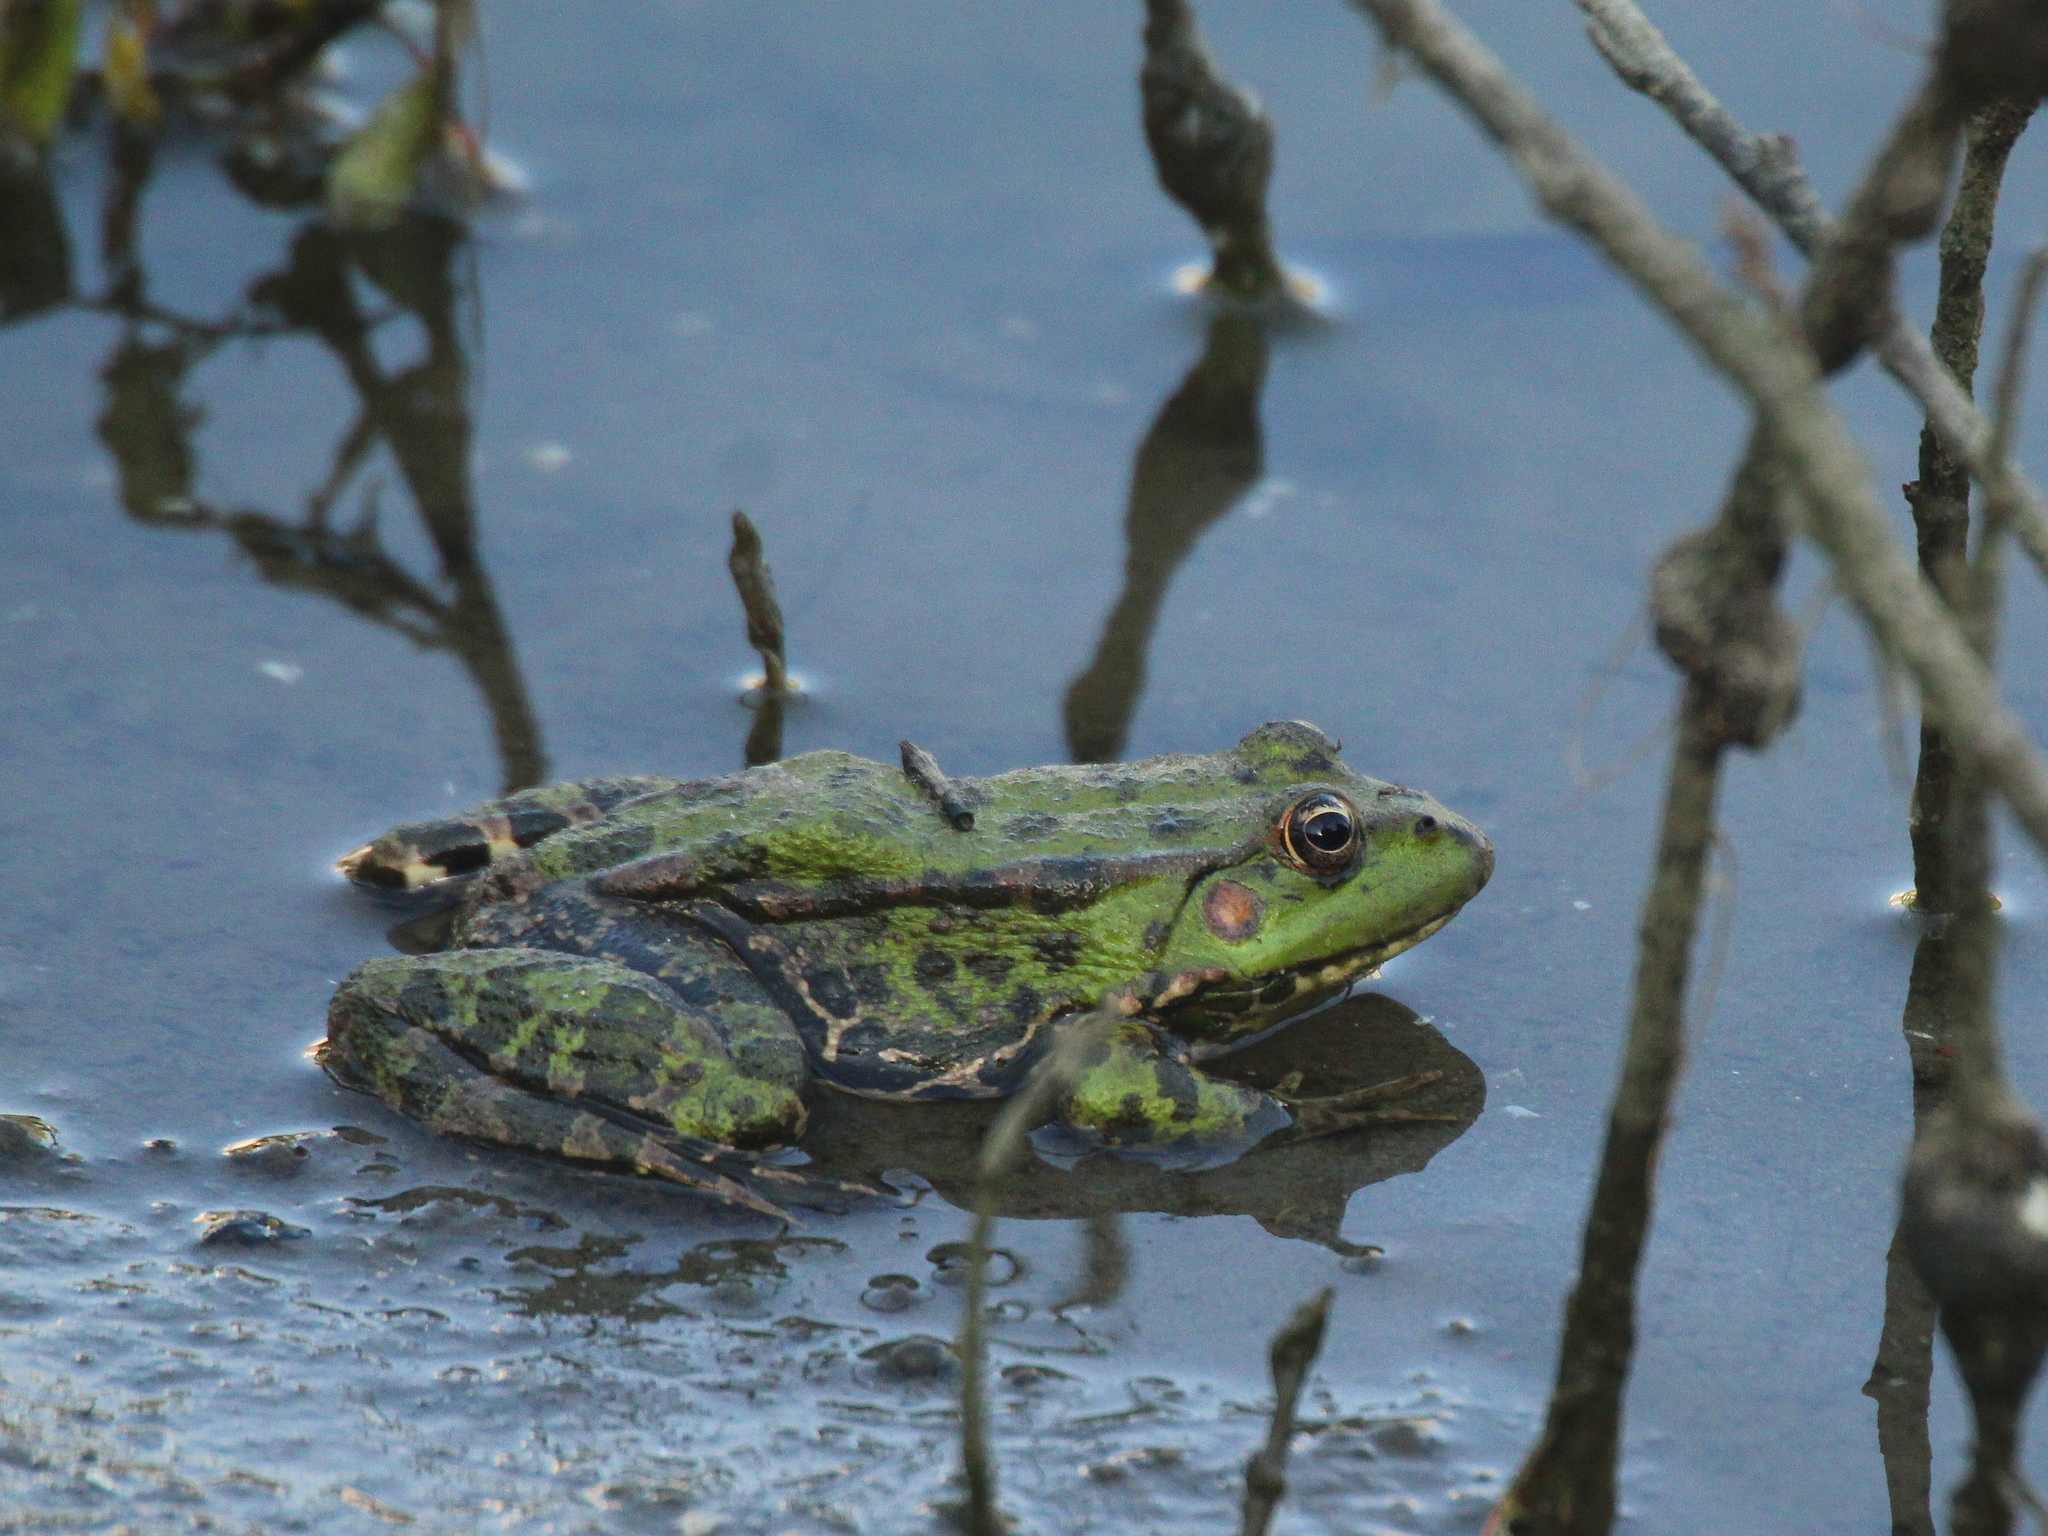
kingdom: Animalia
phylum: Chordata
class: Amphibia
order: Anura
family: Ranidae
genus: Pelophylax
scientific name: Pelophylax ridibundus
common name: Marsh frog
